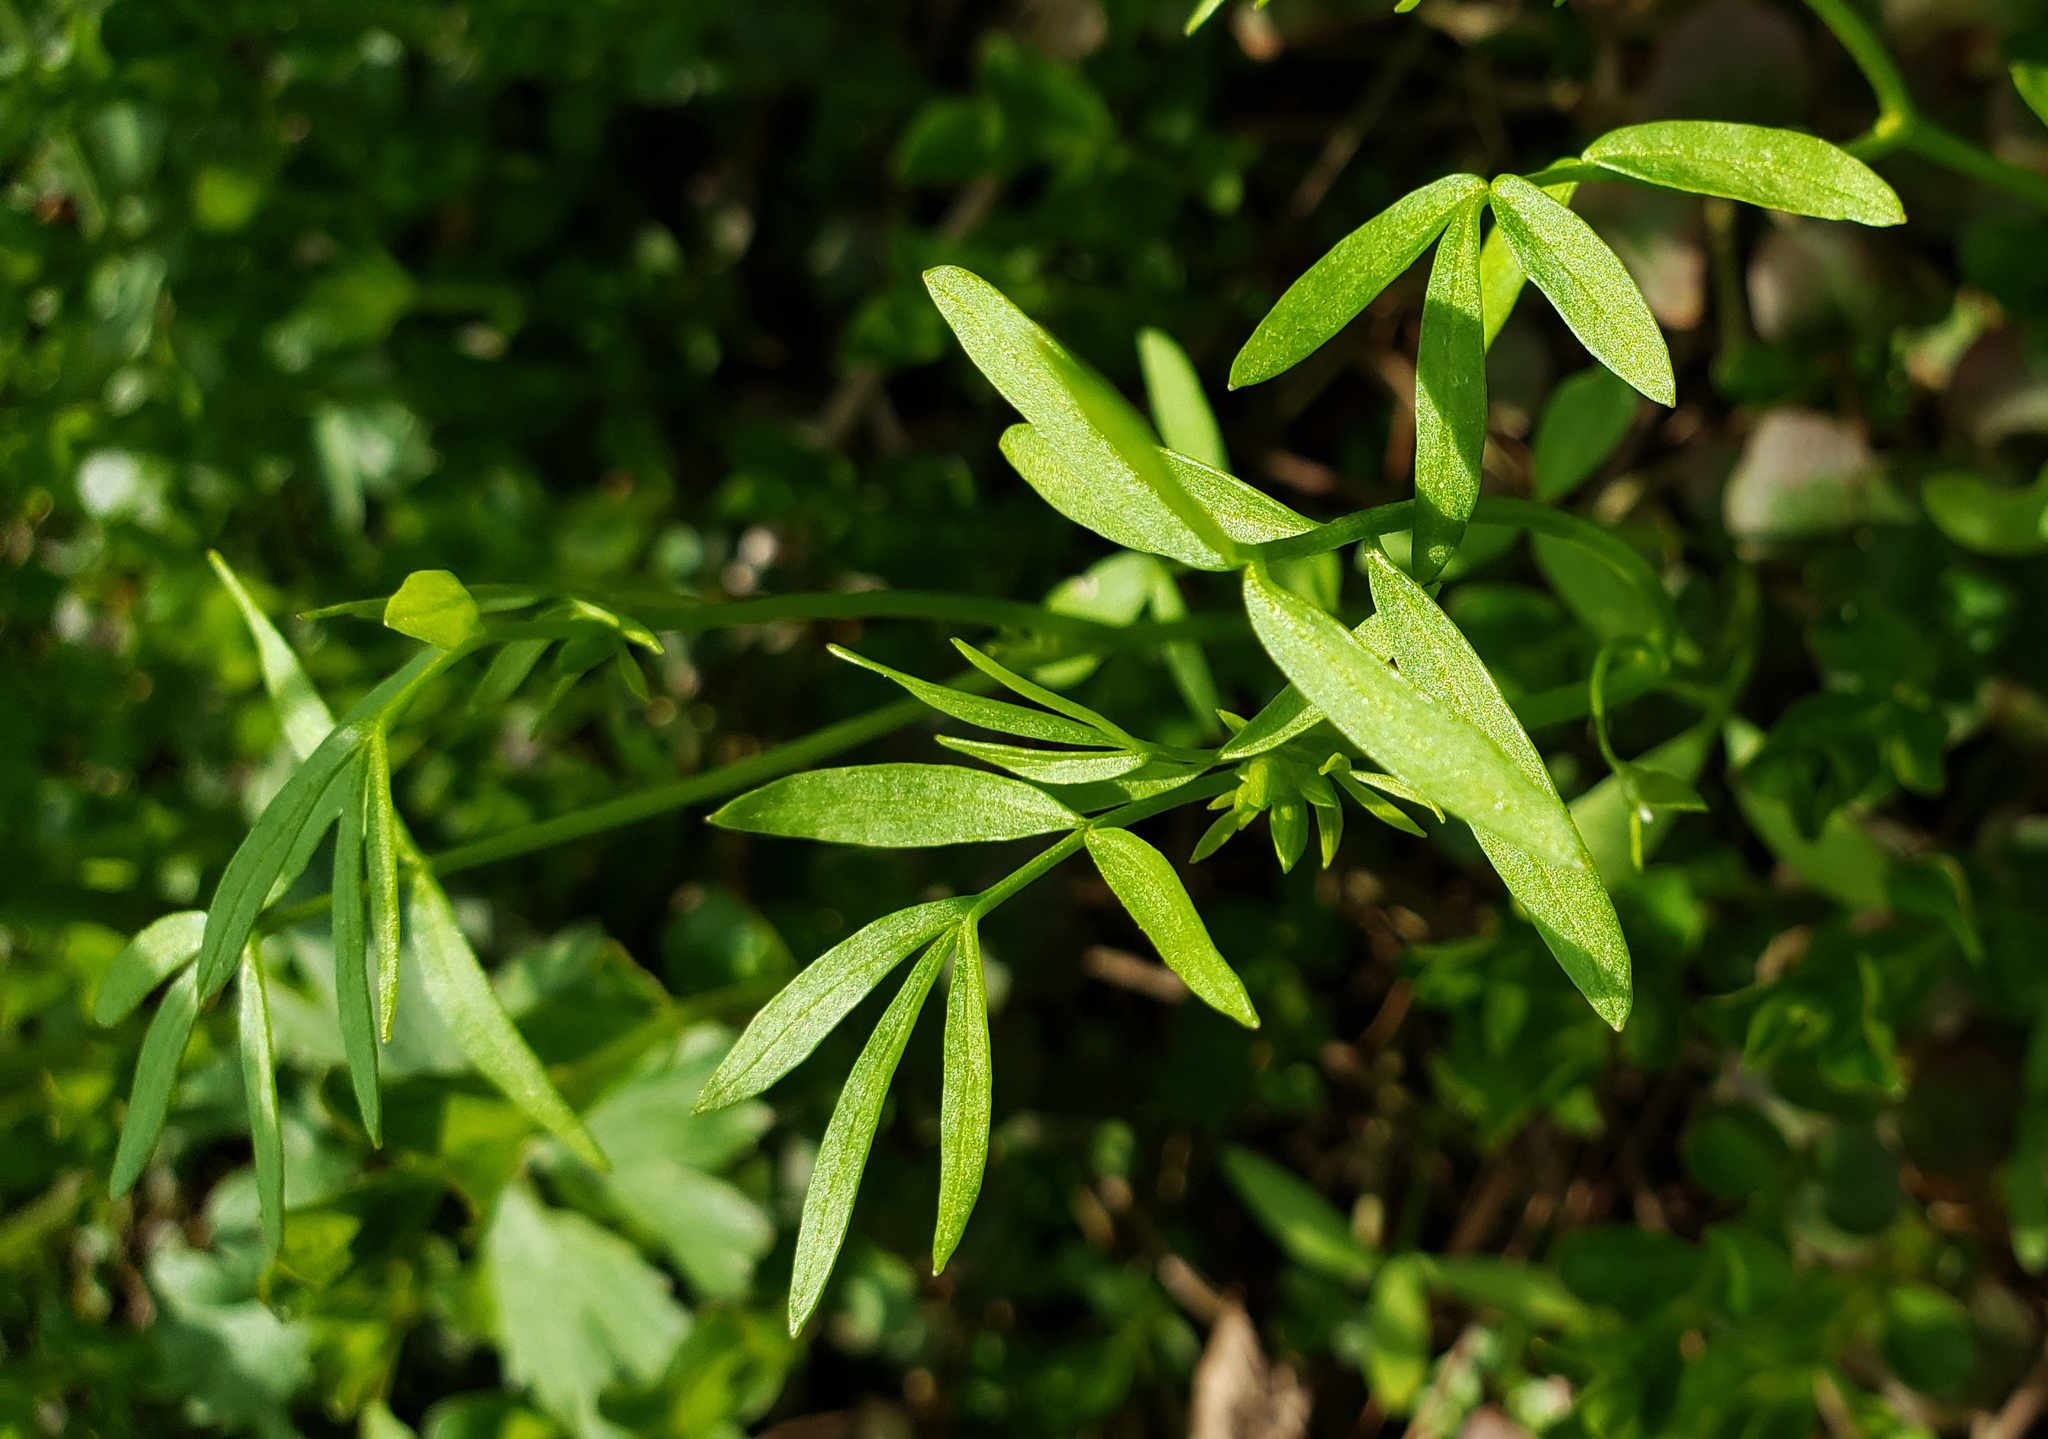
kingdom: Plantae
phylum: Tracheophyta
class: Magnoliopsida
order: Brassicales
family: Limnanthaceae
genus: Floerkea
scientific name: Floerkea proserpinacoides
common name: False mermaid
